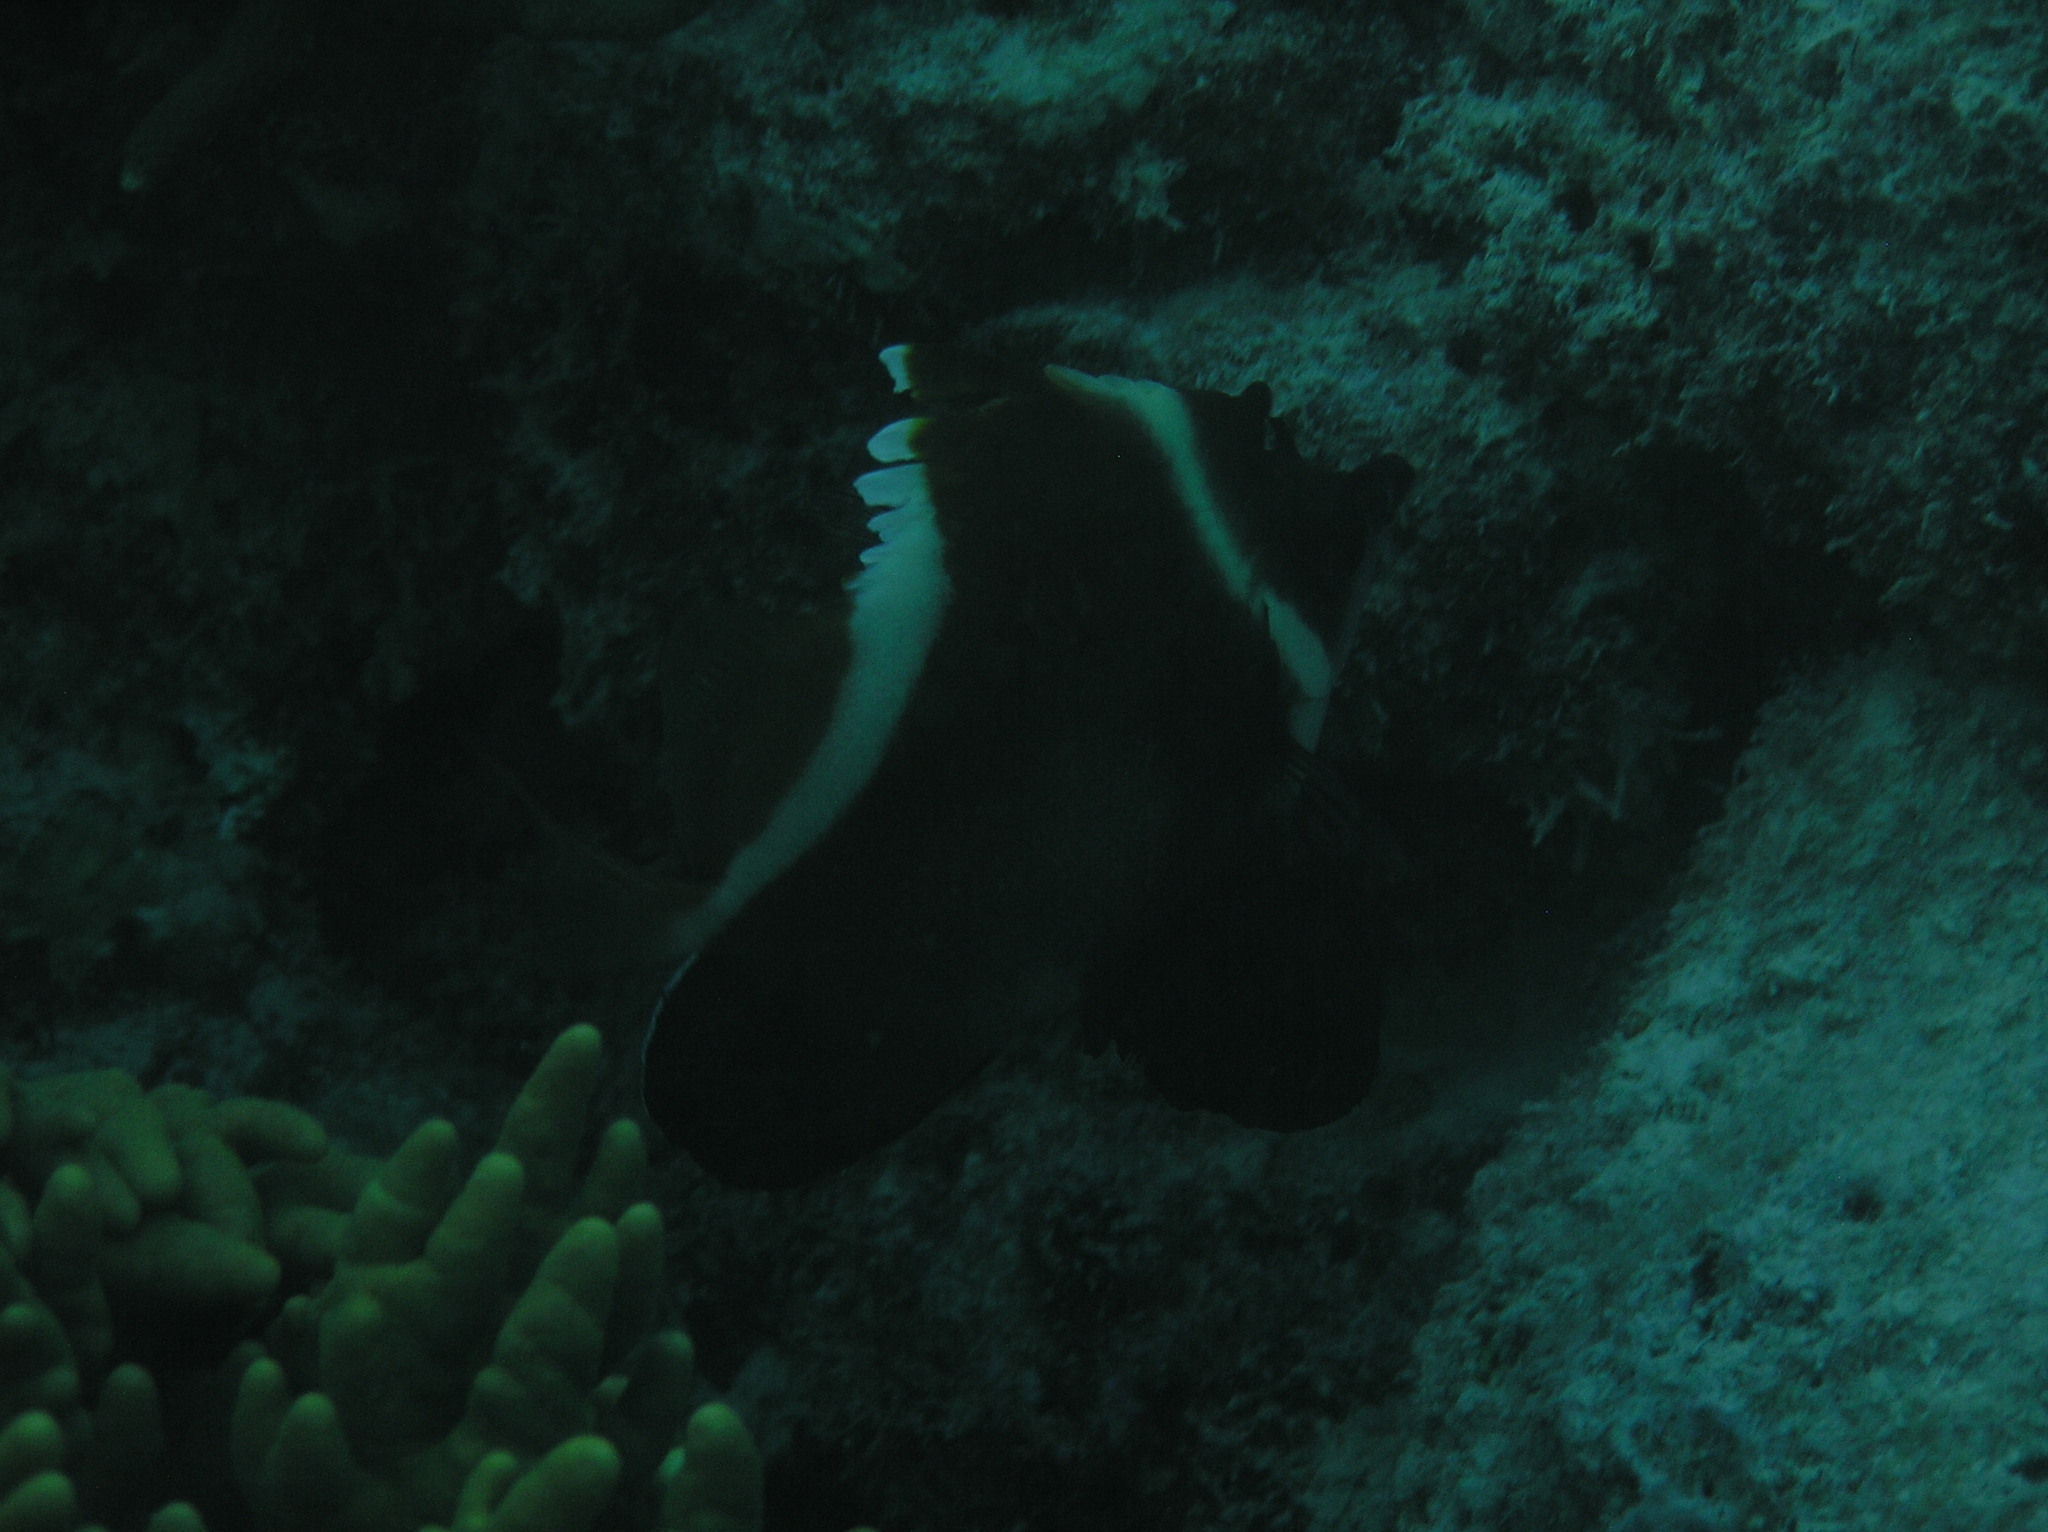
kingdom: Animalia
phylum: Chordata
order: Perciformes
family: Chaetodontidae
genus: Heniochus
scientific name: Heniochus varius
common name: Horned bannerfish
